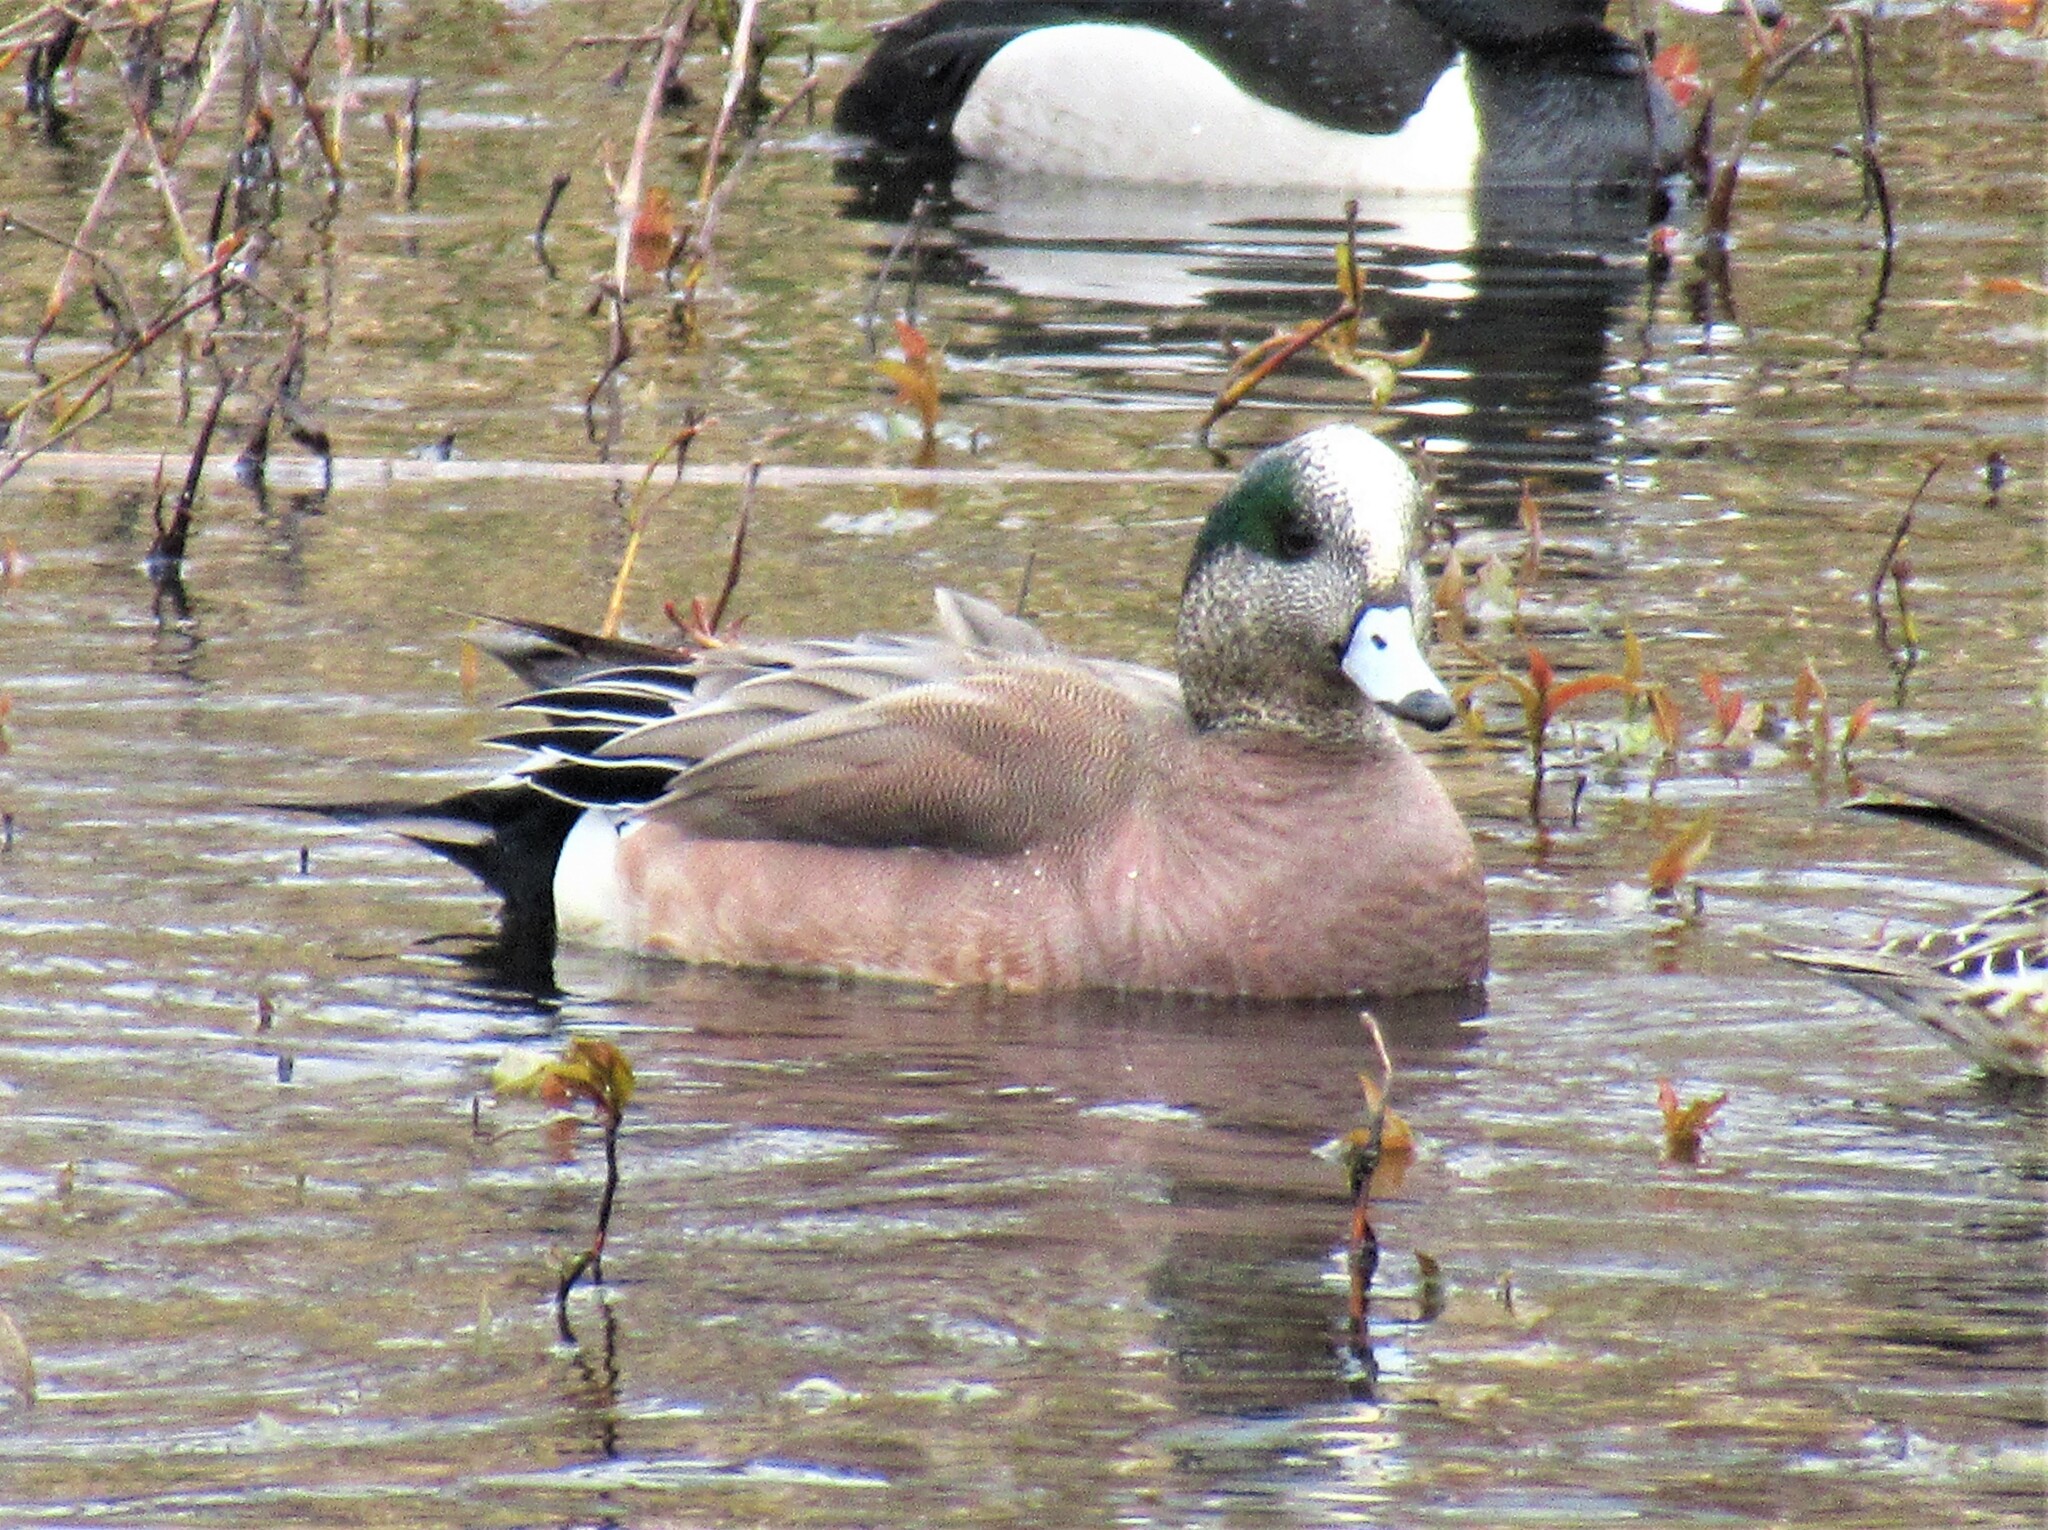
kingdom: Animalia
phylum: Chordata
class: Aves
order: Anseriformes
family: Anatidae
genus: Mareca
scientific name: Mareca americana
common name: American wigeon
